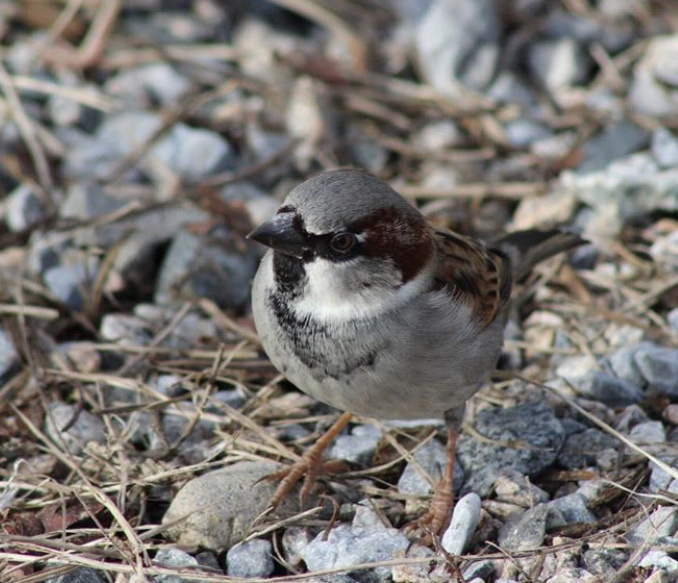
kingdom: Animalia
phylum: Chordata
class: Aves
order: Passeriformes
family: Passeridae
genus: Passer
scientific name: Passer domesticus
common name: House sparrow
